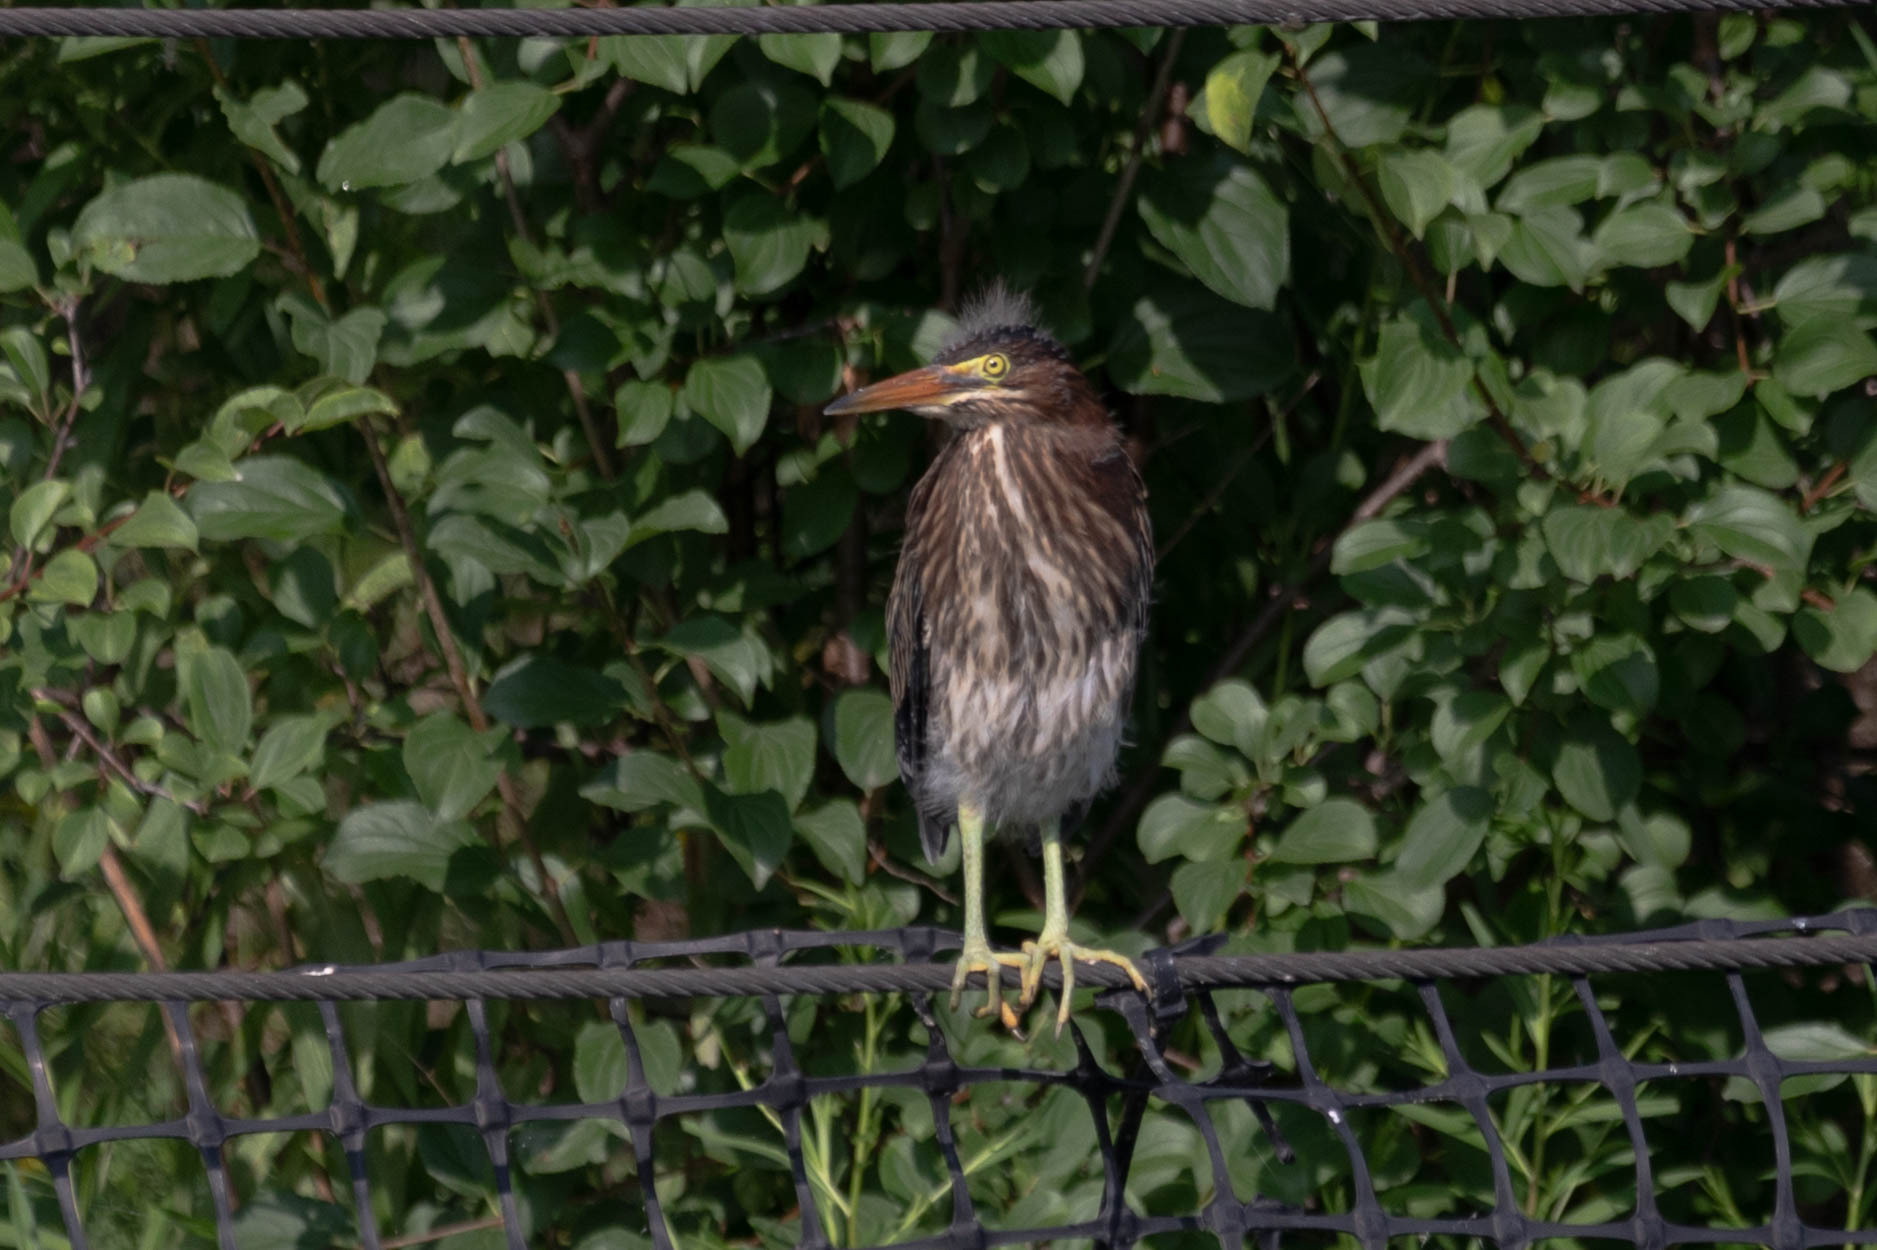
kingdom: Animalia
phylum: Chordata
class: Aves
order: Pelecaniformes
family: Ardeidae
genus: Butorides
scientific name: Butorides virescens
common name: Green heron
